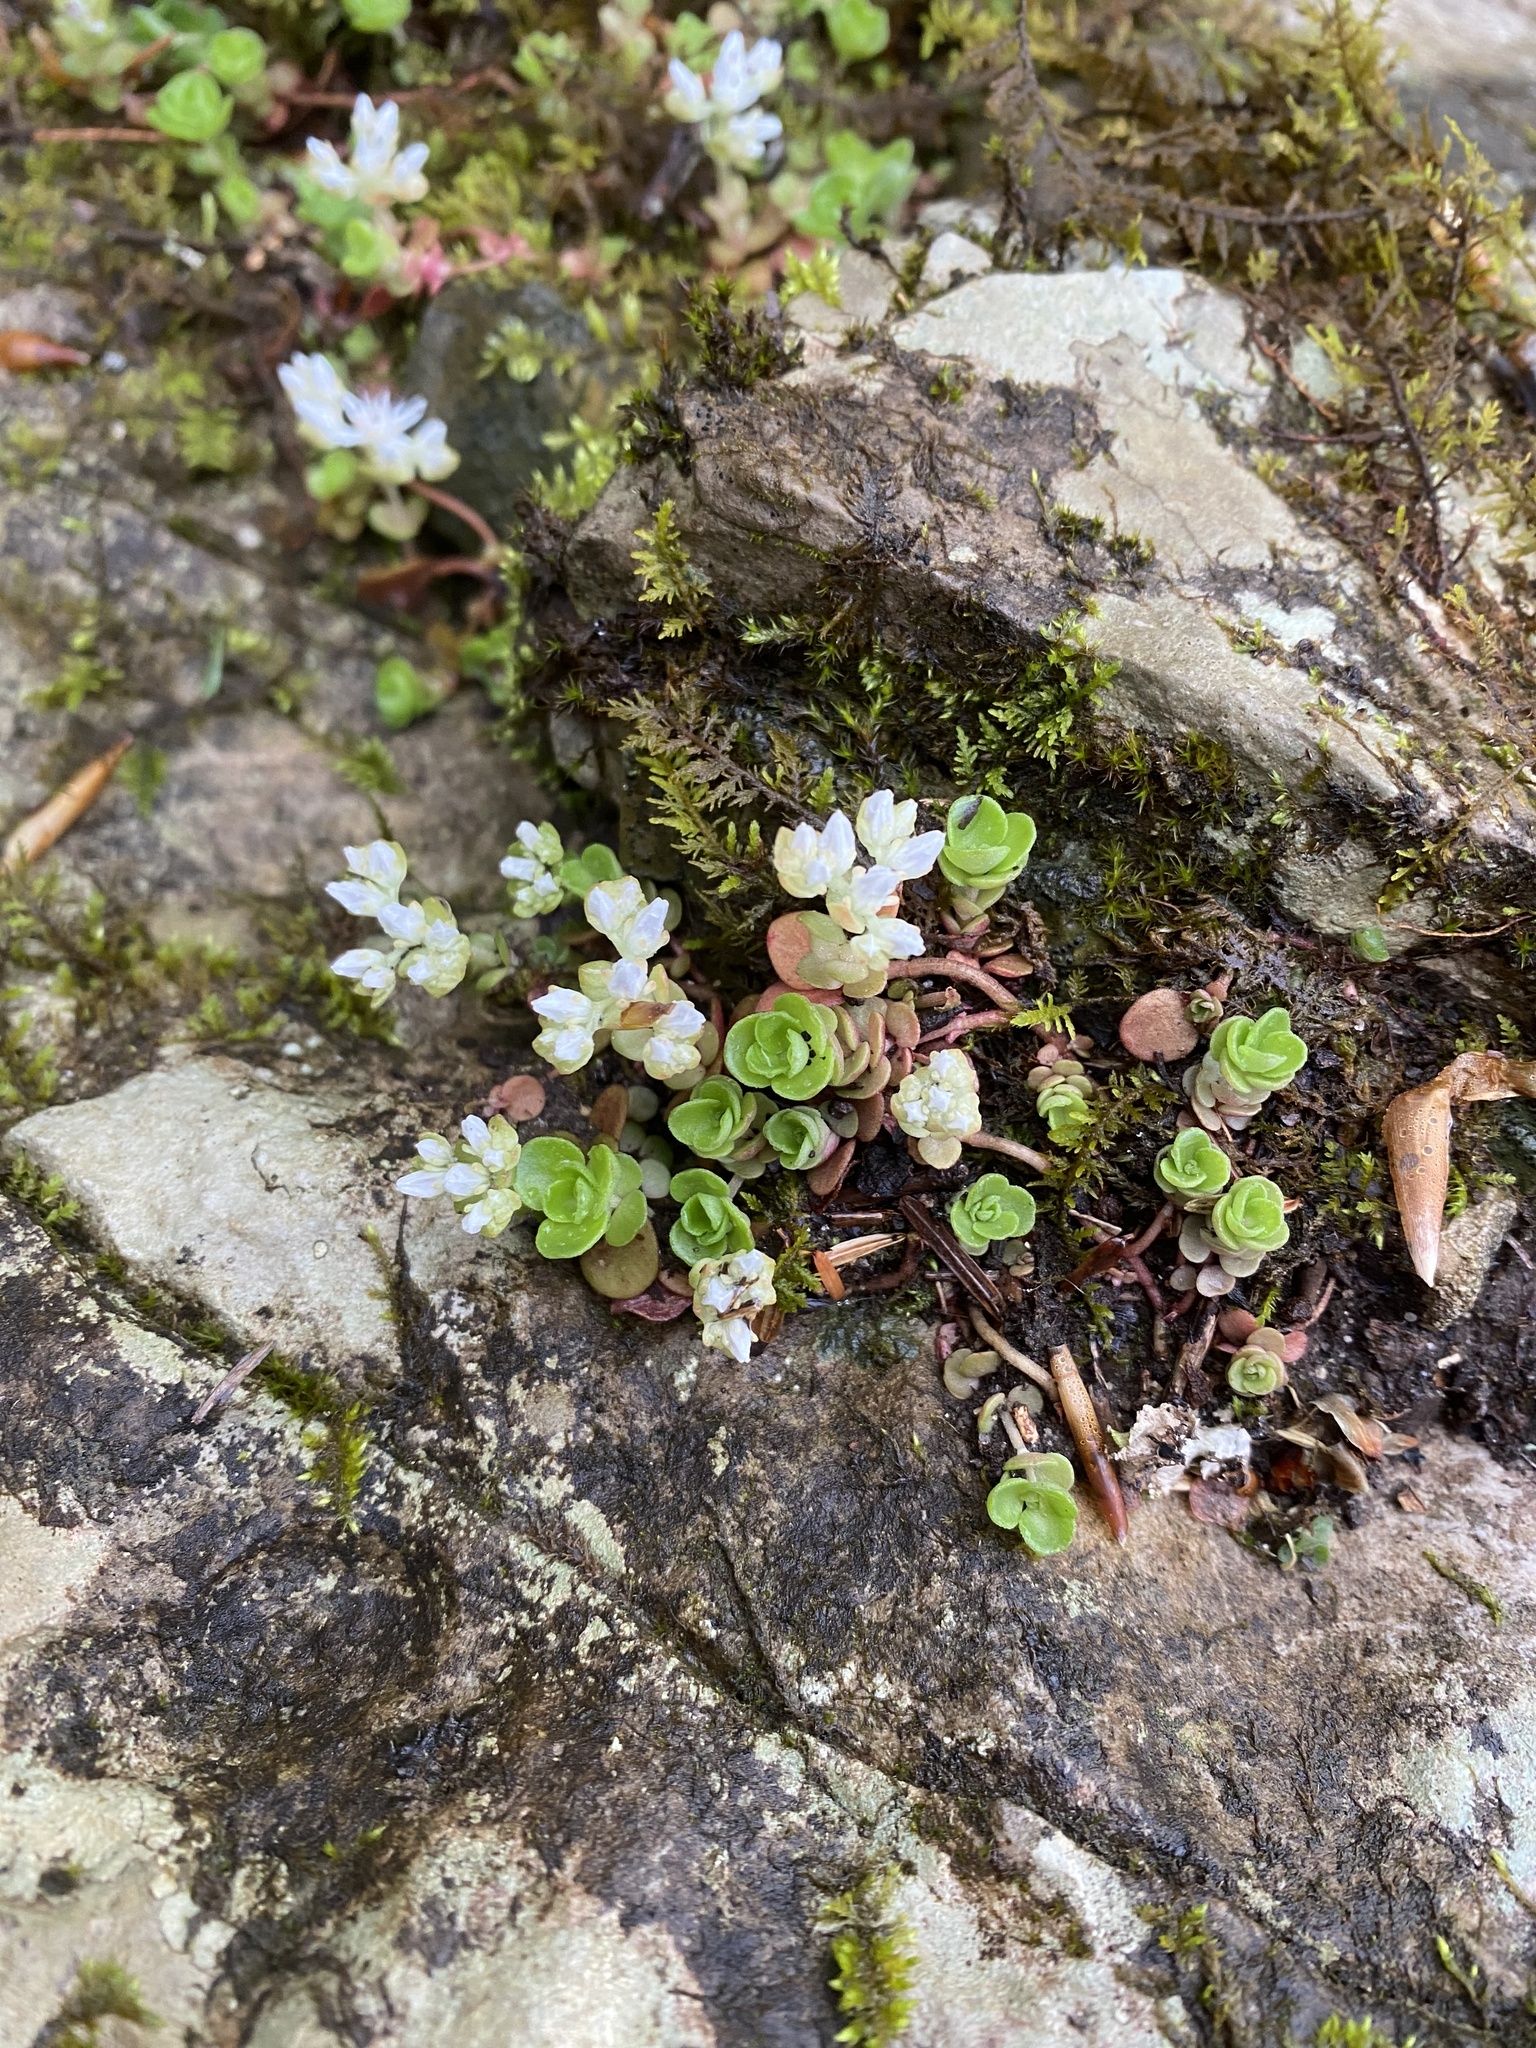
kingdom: Plantae
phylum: Tracheophyta
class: Magnoliopsida
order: Saxifragales
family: Crassulaceae
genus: Sedum
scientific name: Sedum ternatum
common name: Wild stonecrop
